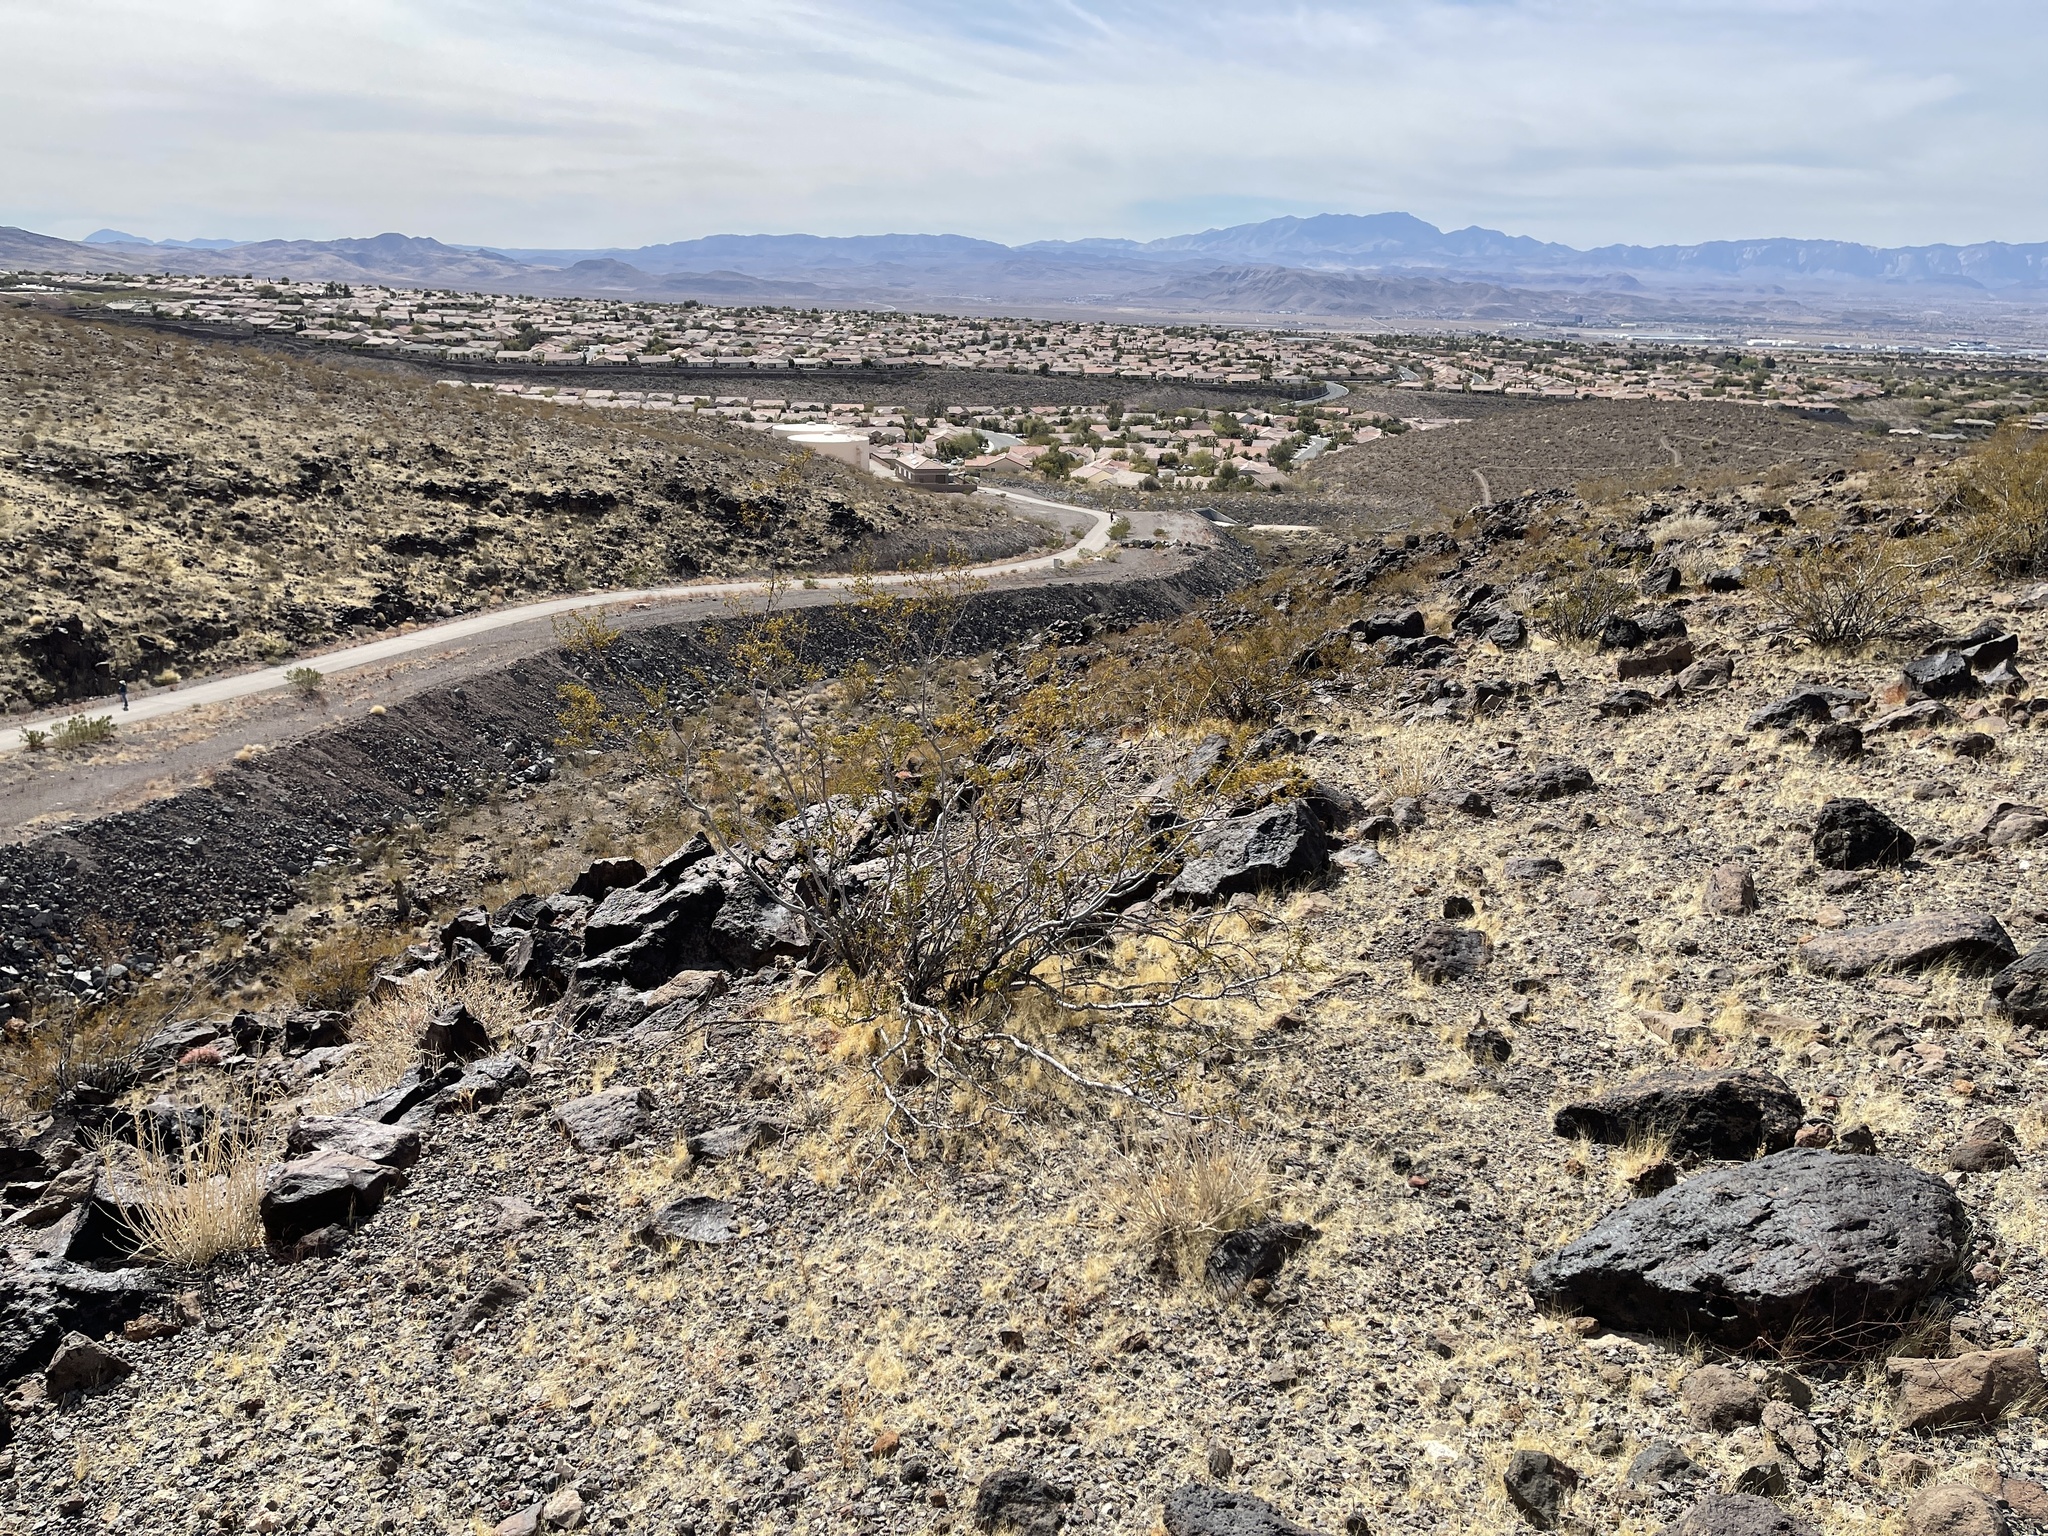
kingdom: Plantae
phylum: Tracheophyta
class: Magnoliopsida
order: Zygophyllales
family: Zygophyllaceae
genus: Larrea
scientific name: Larrea tridentata
